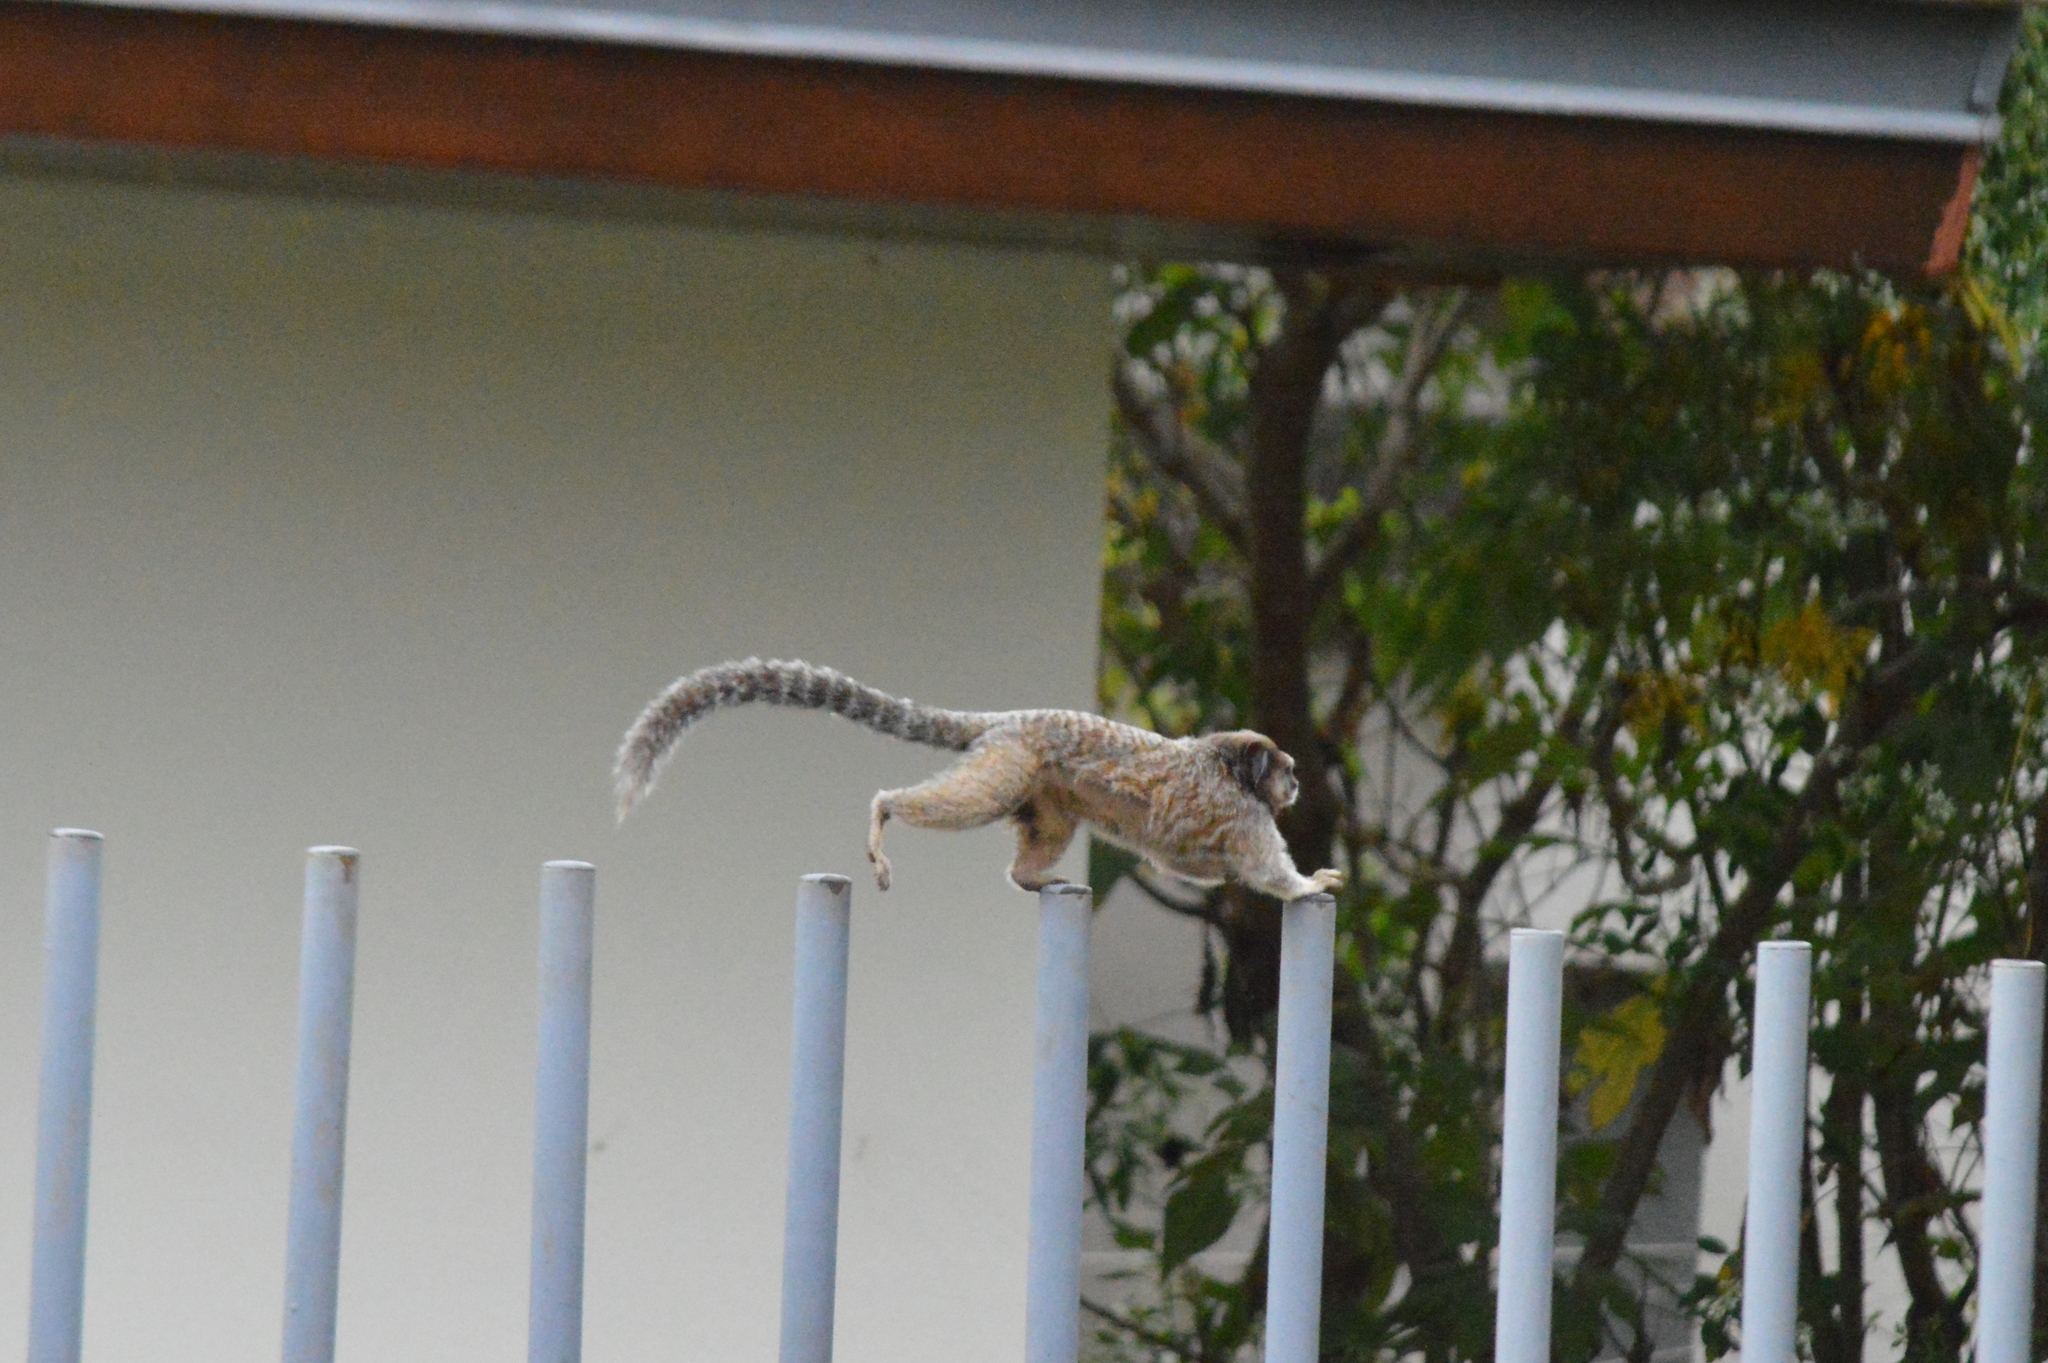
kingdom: Animalia
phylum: Chordata
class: Mammalia
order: Primates
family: Callitrichidae
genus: Callithrix
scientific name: Callithrix penicillata
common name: Black-tufted marmoset
